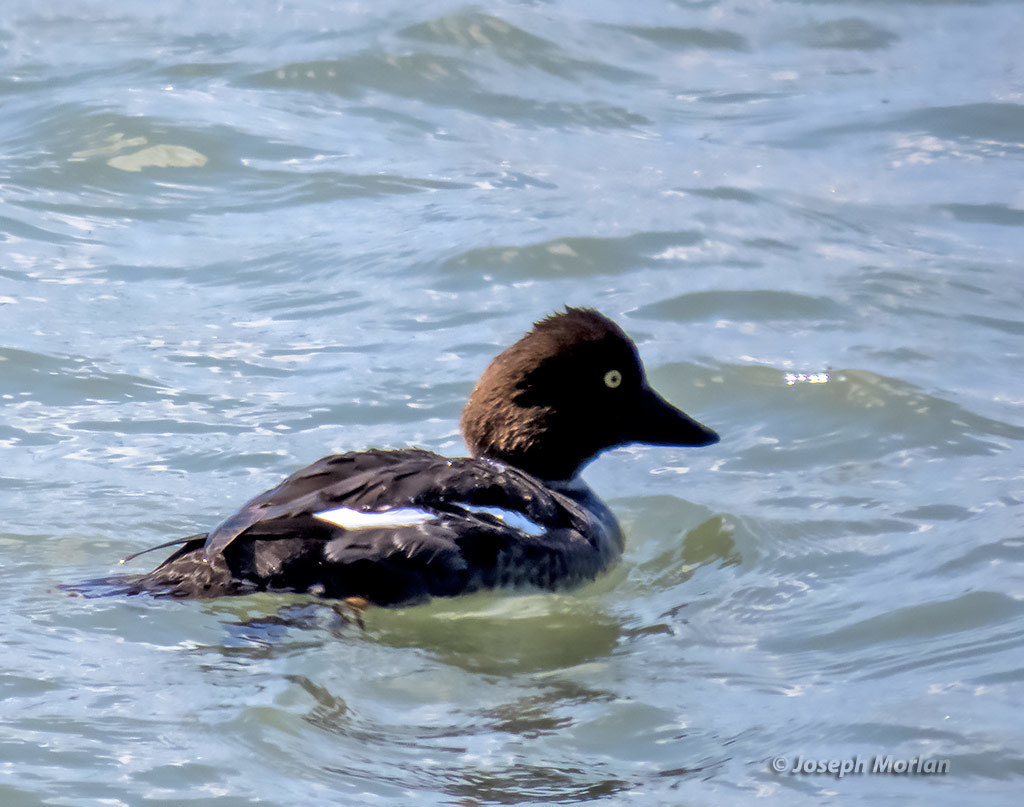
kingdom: Animalia
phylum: Chordata
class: Aves
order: Anseriformes
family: Anatidae
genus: Bucephala
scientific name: Bucephala clangula
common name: Common goldeneye
